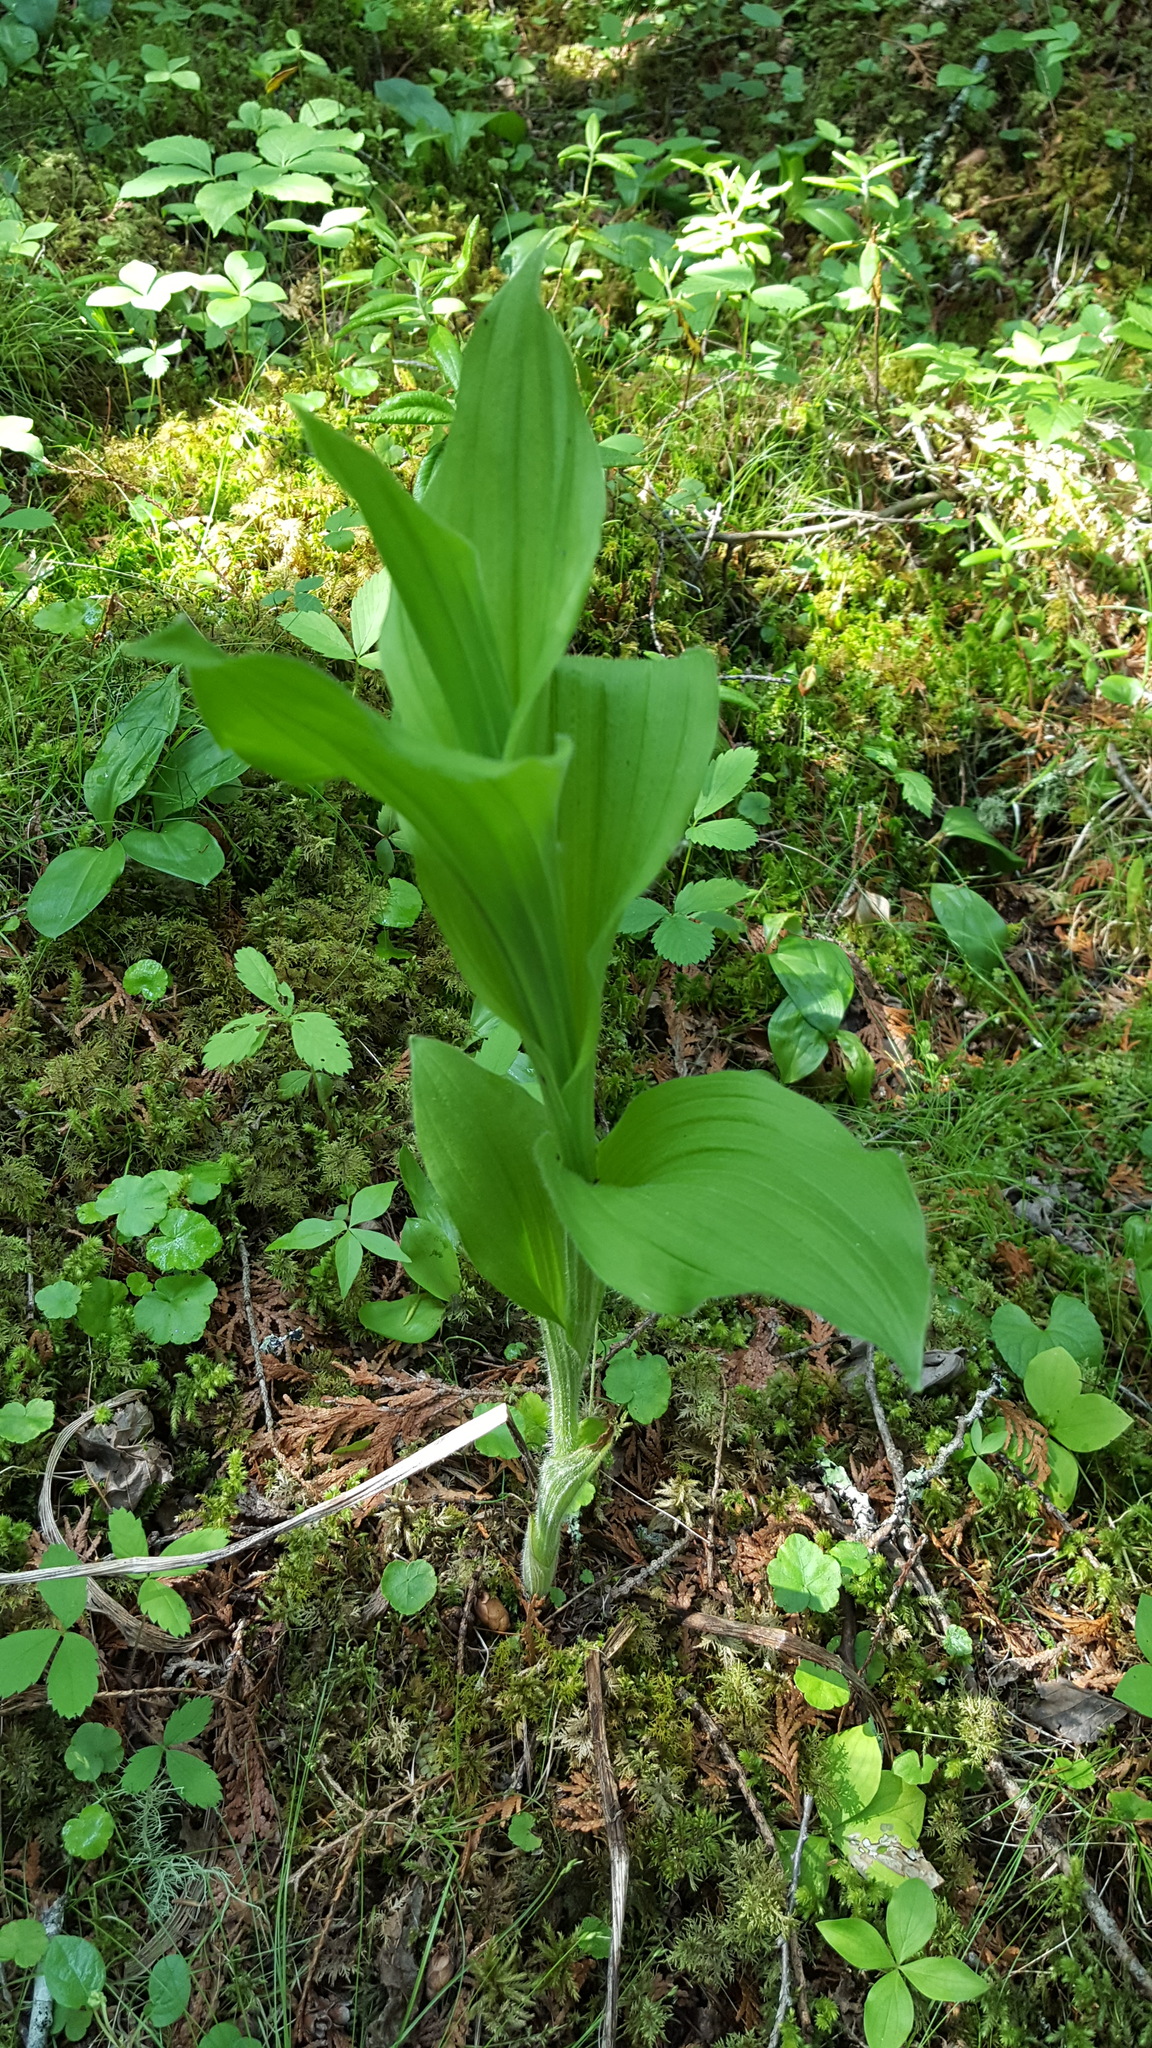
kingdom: Plantae
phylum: Tracheophyta
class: Liliopsida
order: Asparagales
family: Orchidaceae
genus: Cypripedium
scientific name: Cypripedium reginae
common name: Queen lady's-slipper
